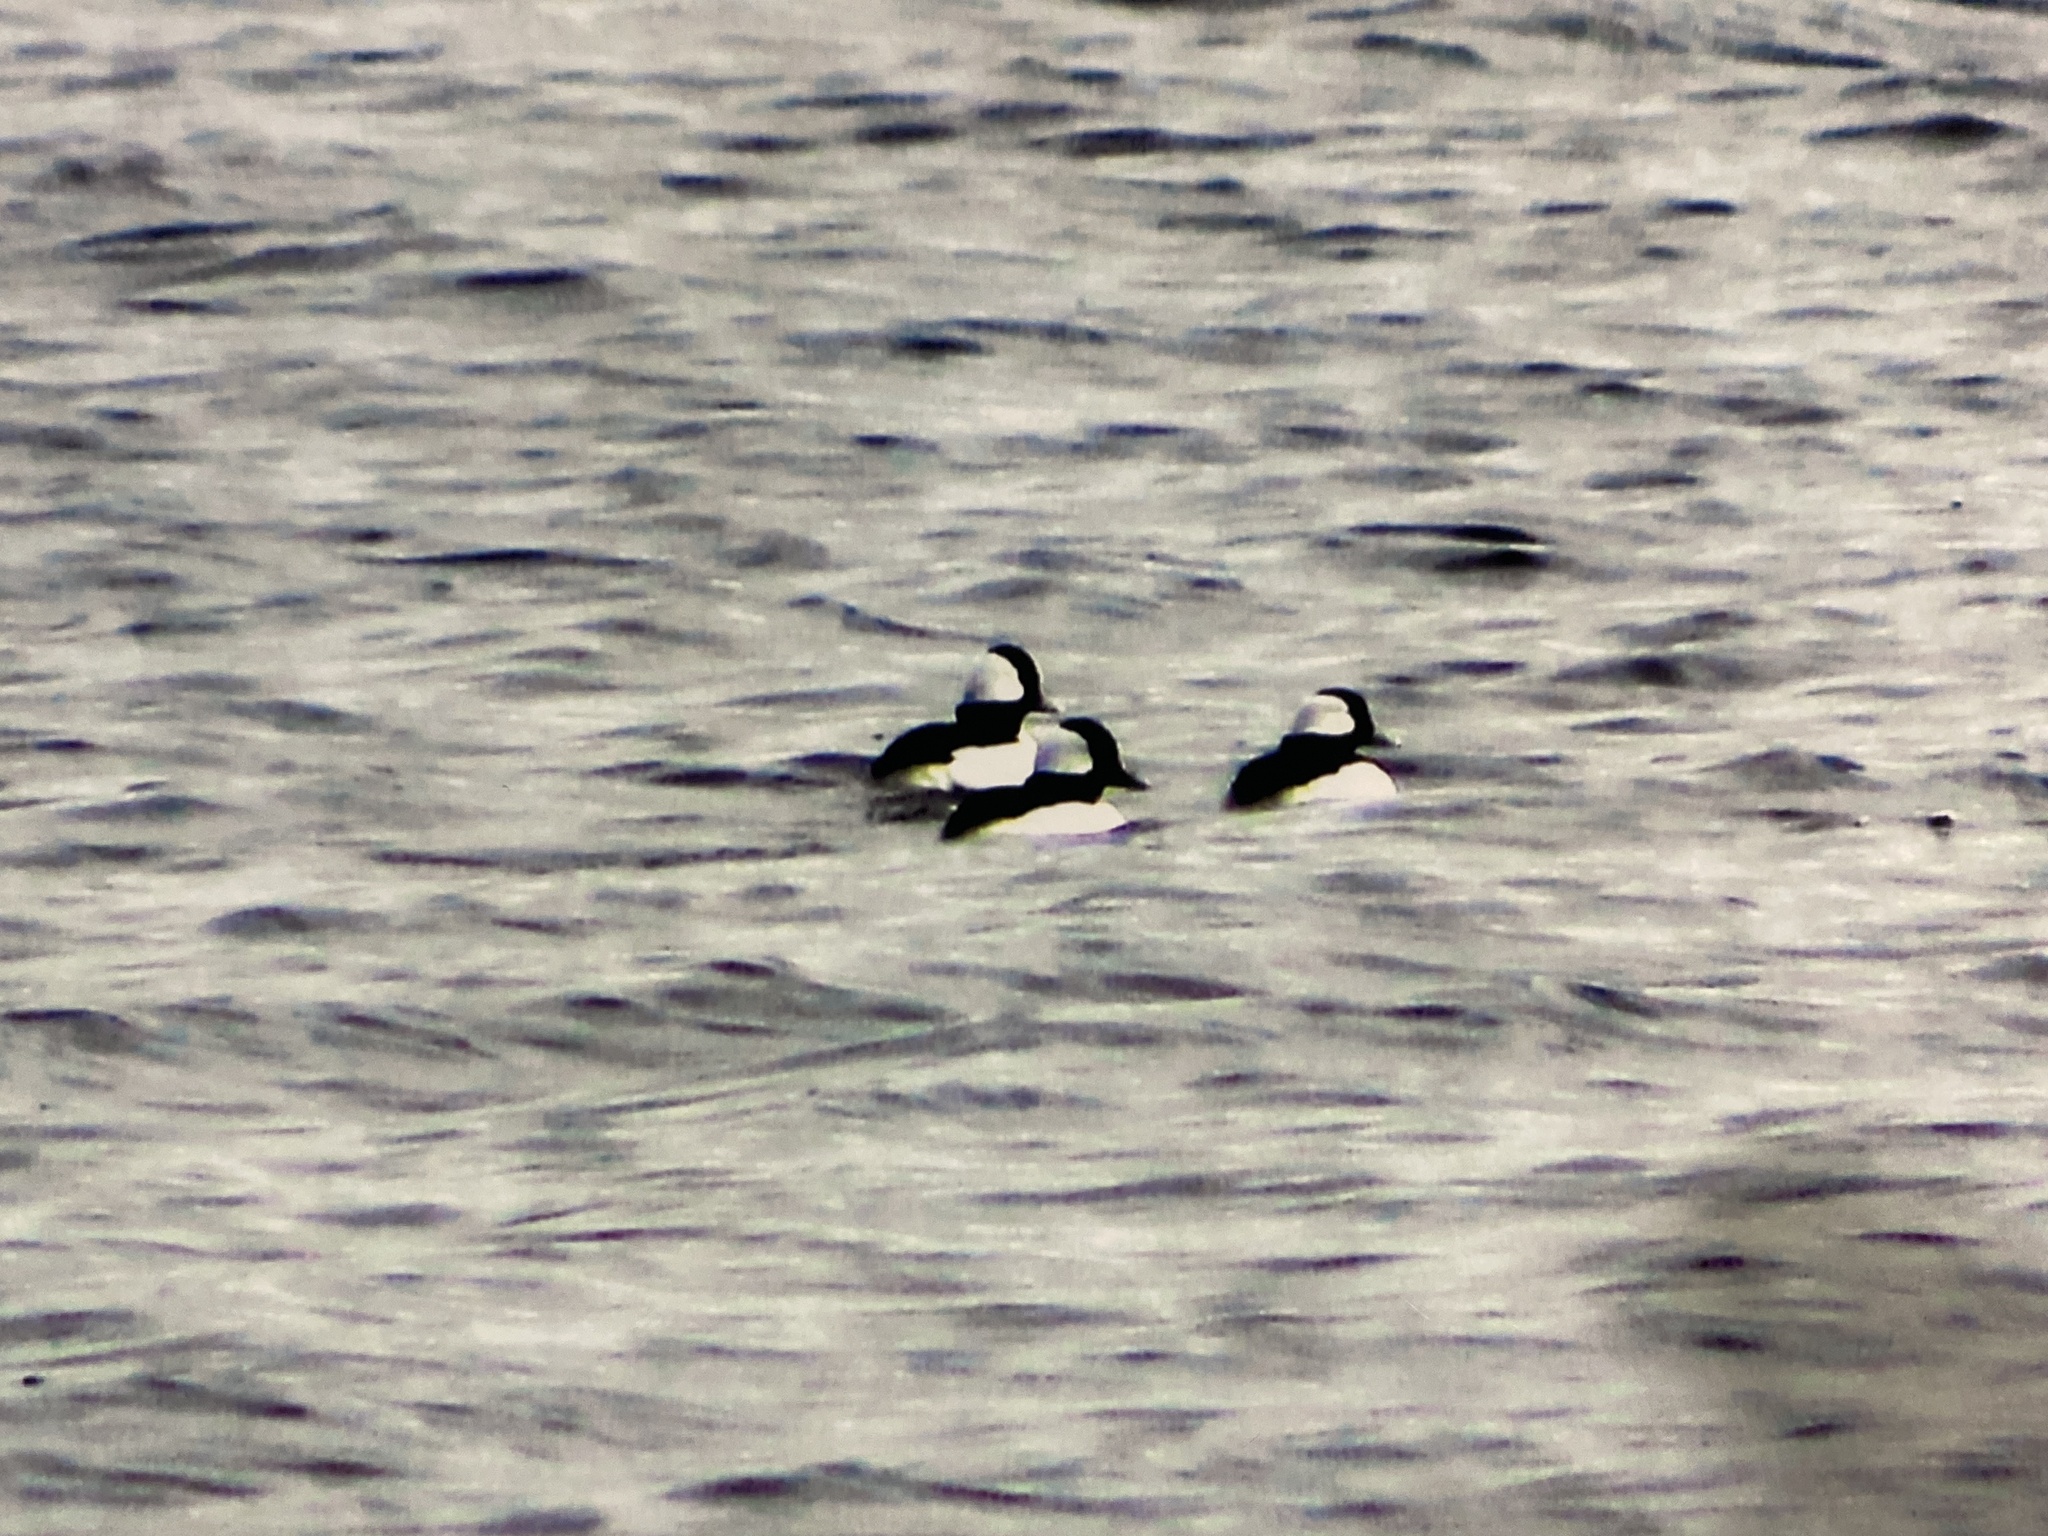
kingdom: Animalia
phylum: Chordata
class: Aves
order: Anseriformes
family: Anatidae
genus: Bucephala
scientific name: Bucephala albeola
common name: Bufflehead
